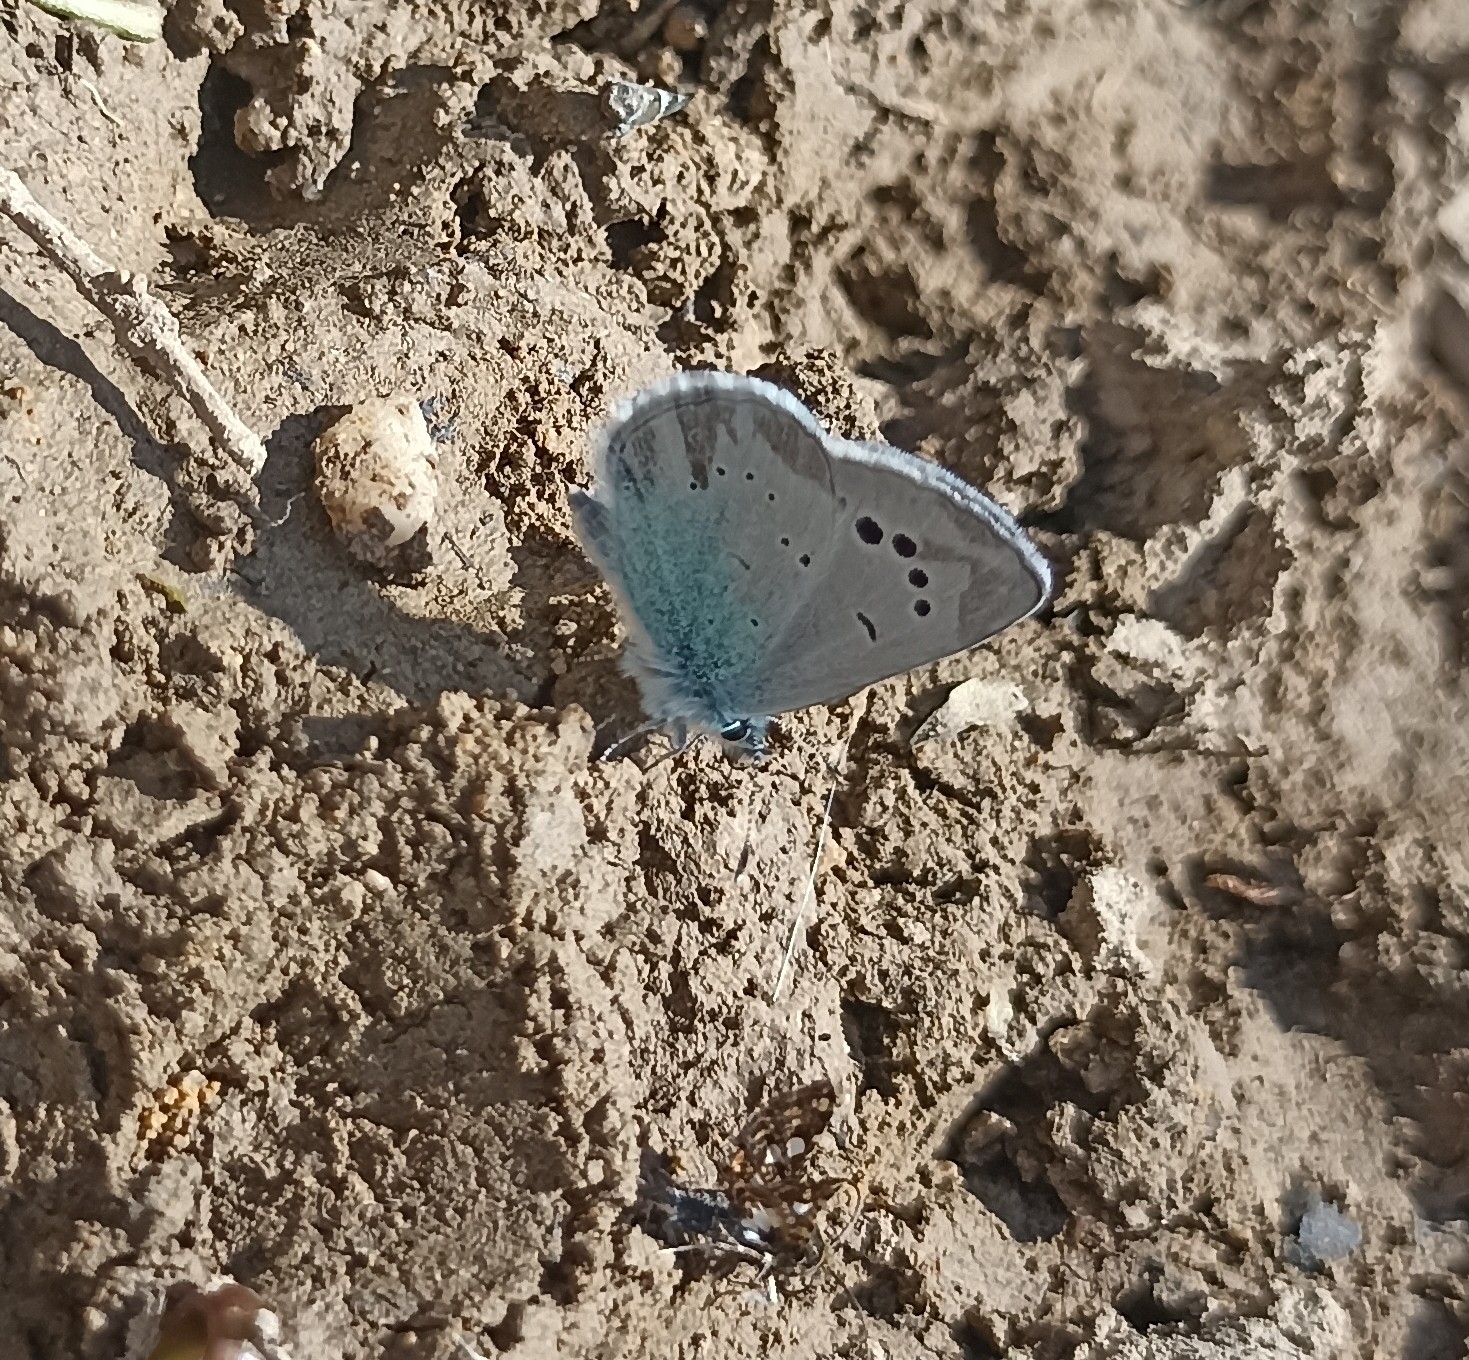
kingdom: Animalia
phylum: Arthropoda
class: Insecta
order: Lepidoptera
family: Lycaenidae
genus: Glaucopsyche
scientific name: Glaucopsyche alexis
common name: Green-underside blue
